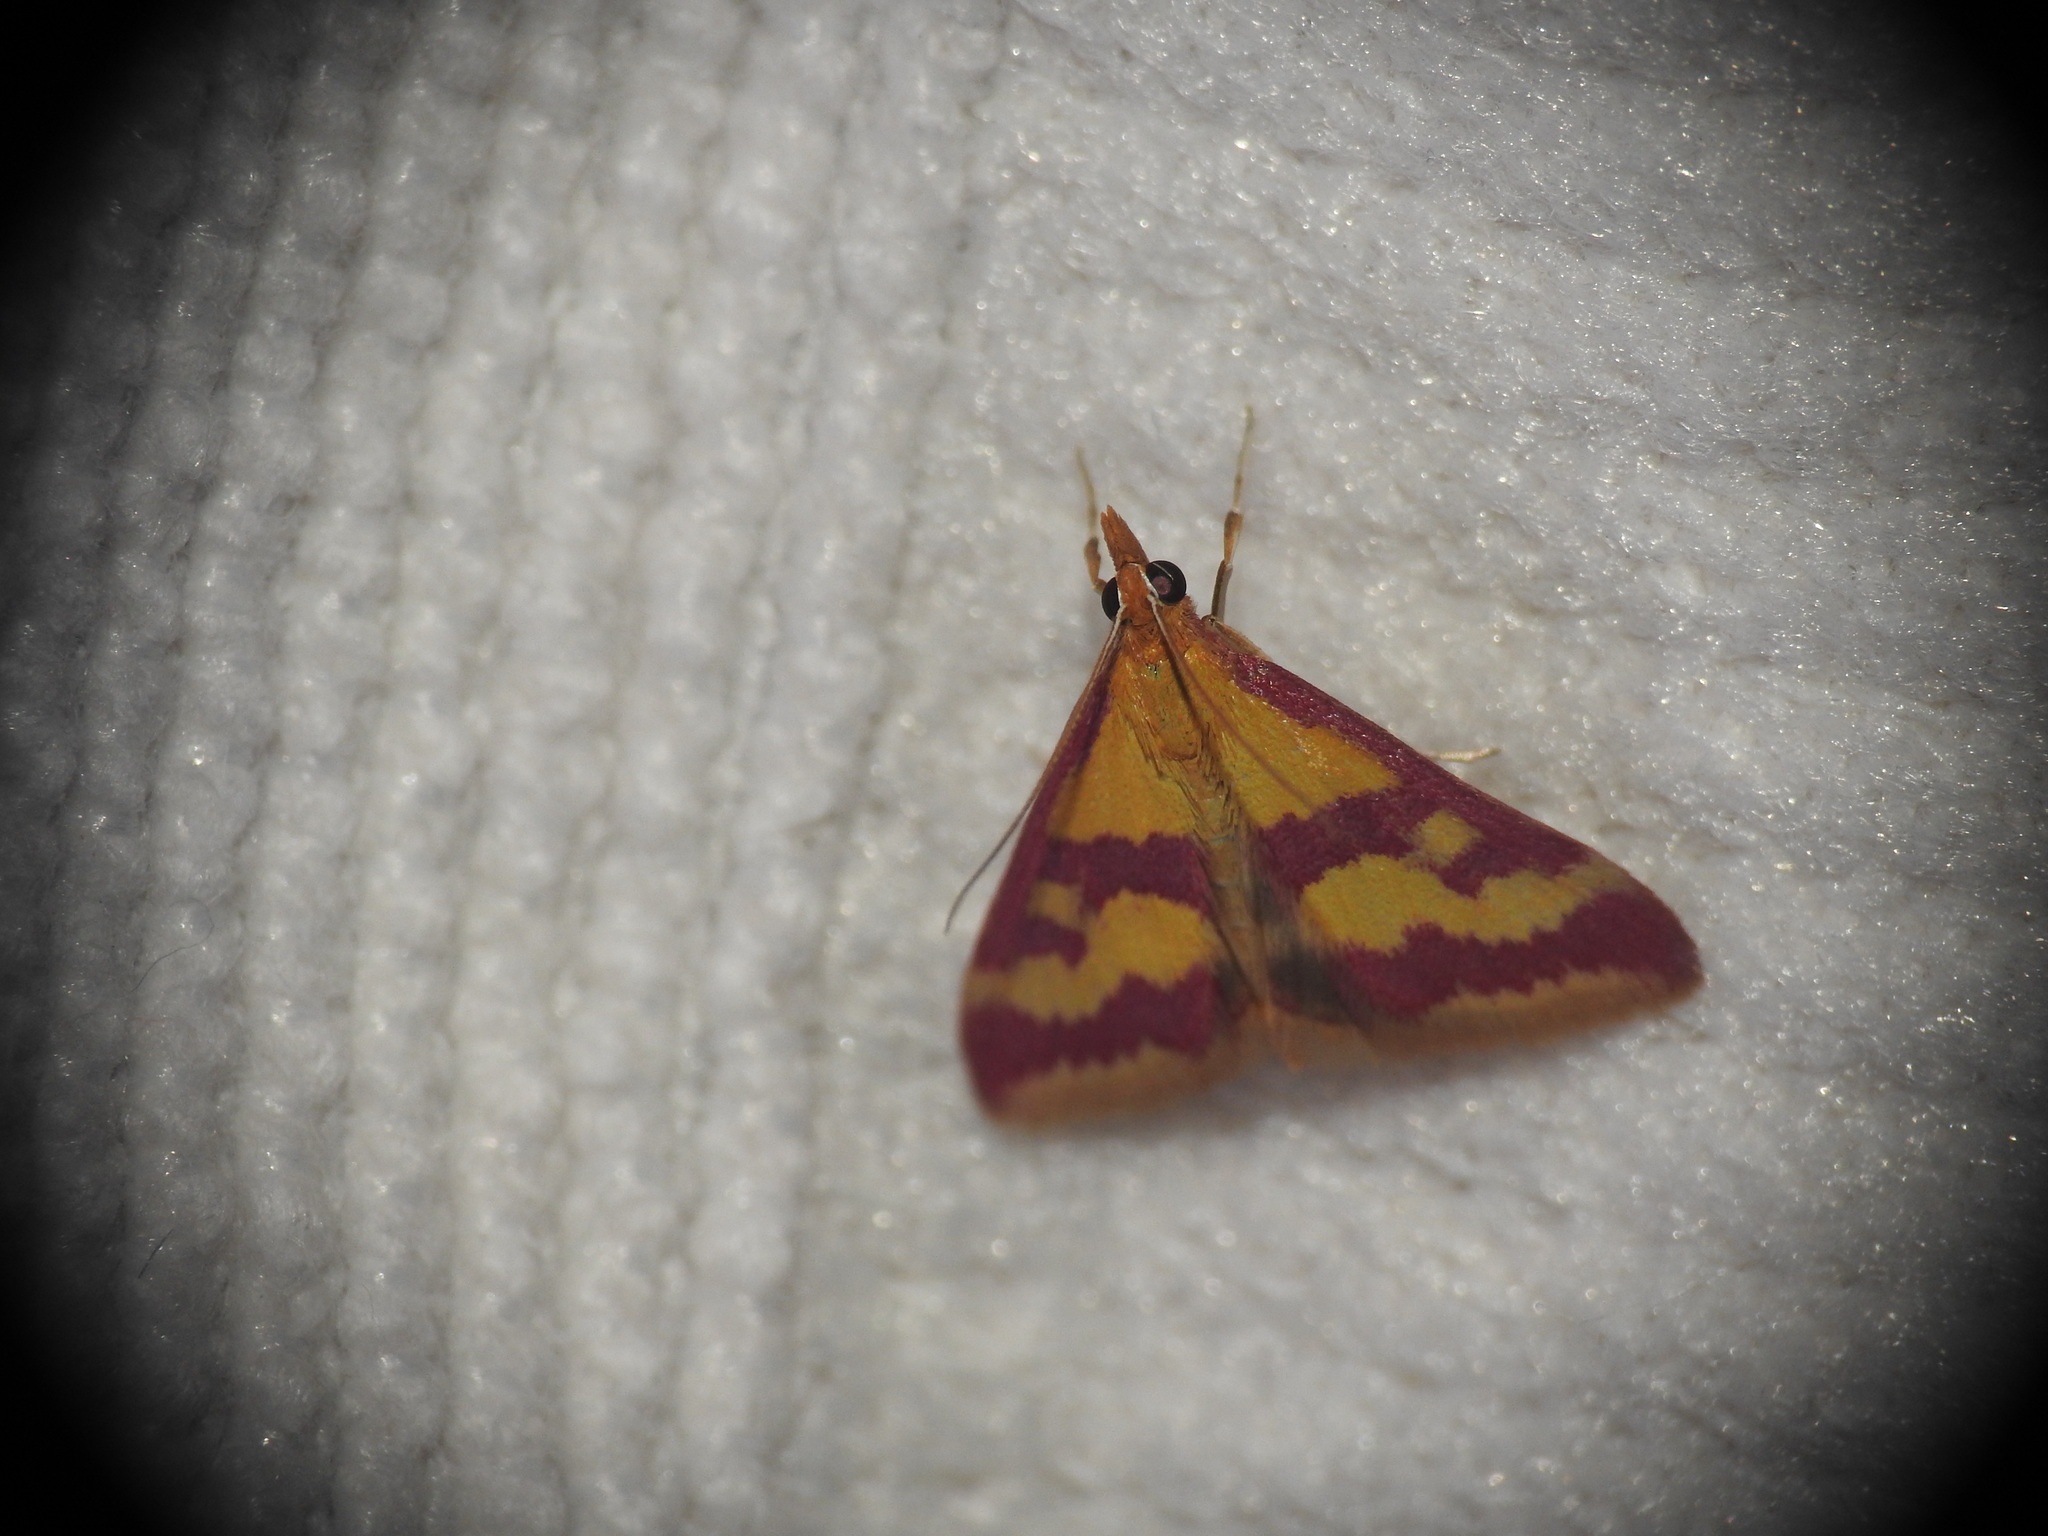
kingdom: Animalia
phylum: Arthropoda
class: Insecta
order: Lepidoptera
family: Crambidae
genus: Pyrausta
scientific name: Pyrausta sanguinalis
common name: Scarce crimson and gold
